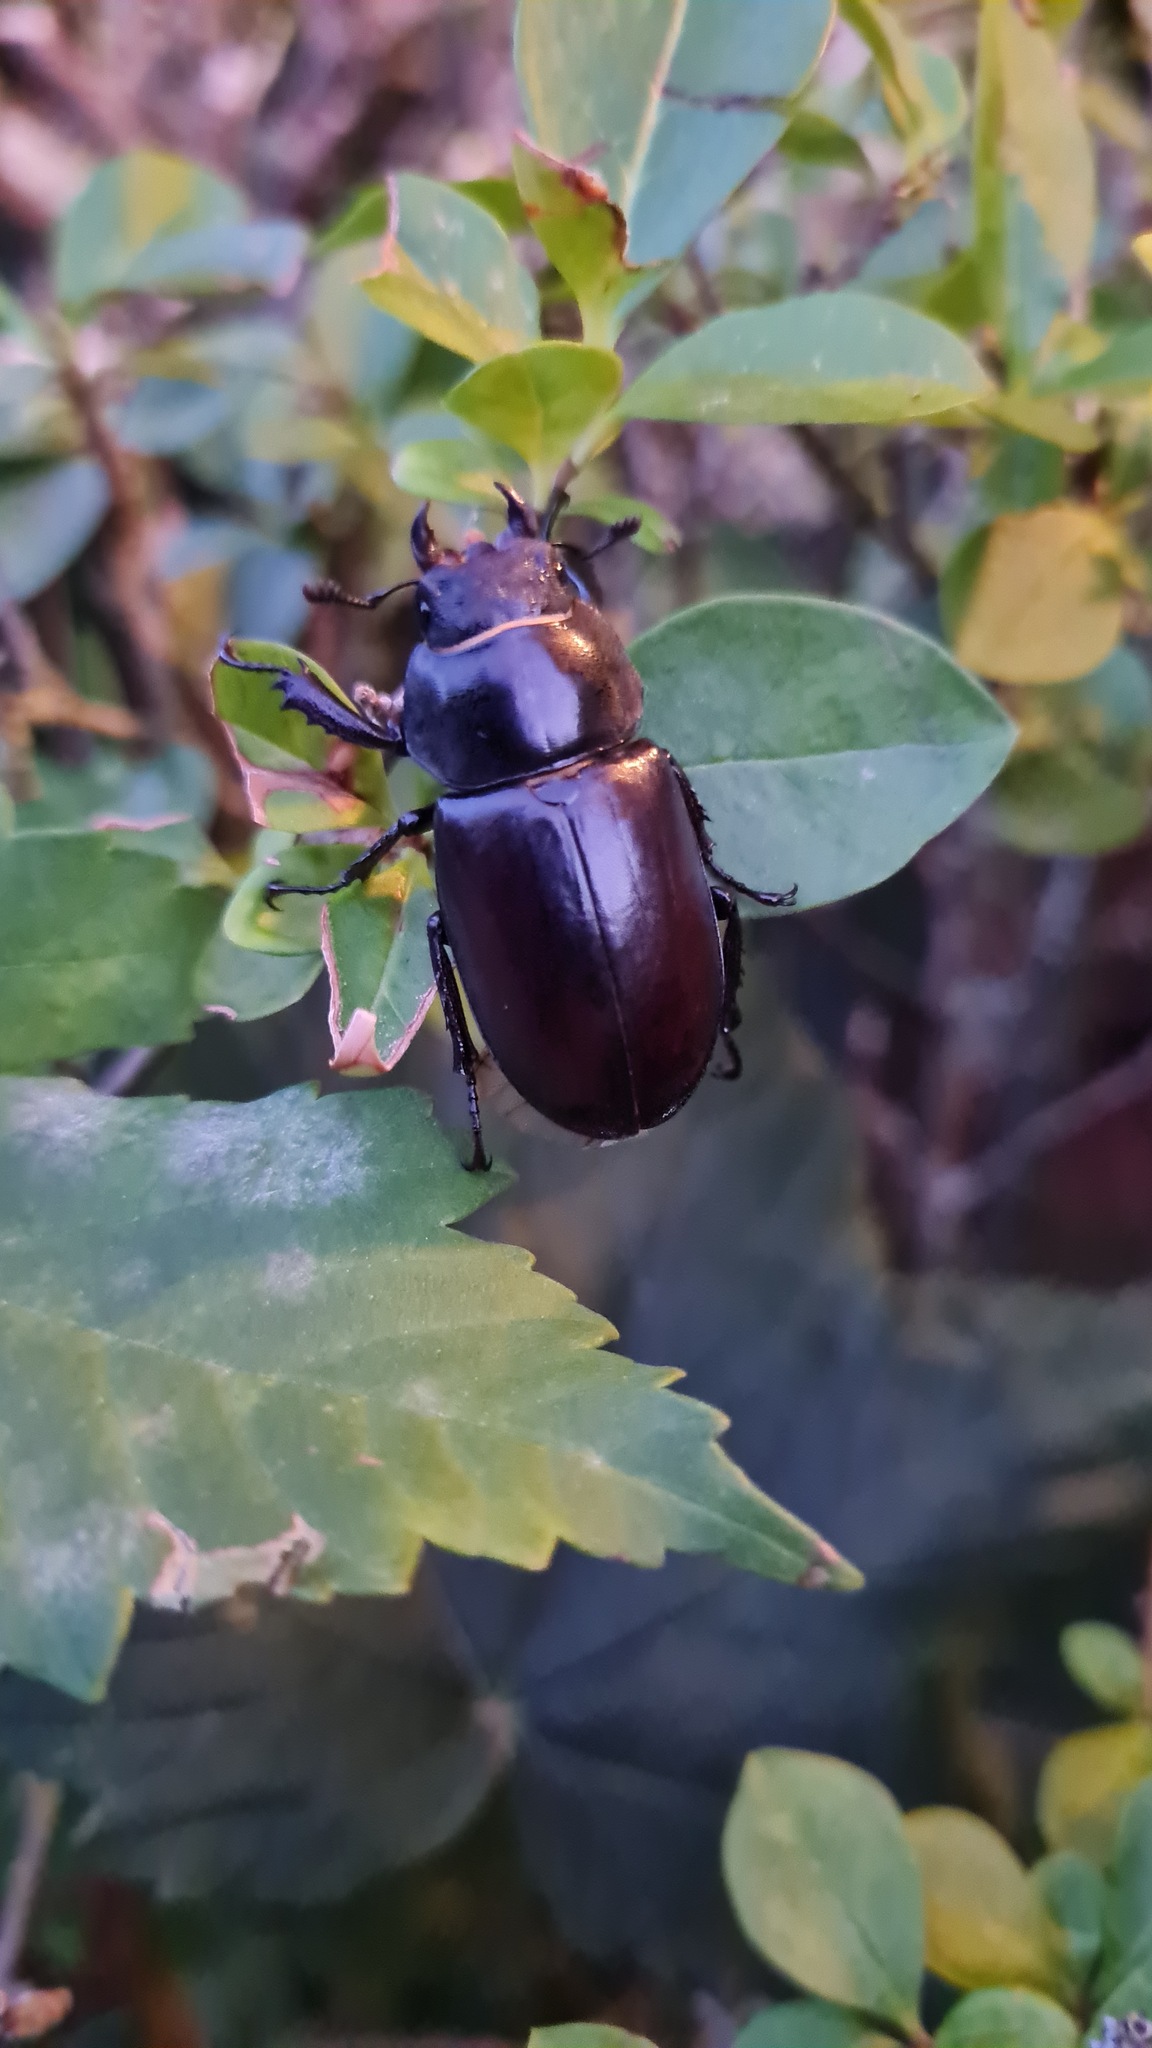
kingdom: Animalia
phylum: Arthropoda
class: Insecta
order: Coleoptera
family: Lucanidae
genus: Lucanus
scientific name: Lucanus cervus
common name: Stag beetle
